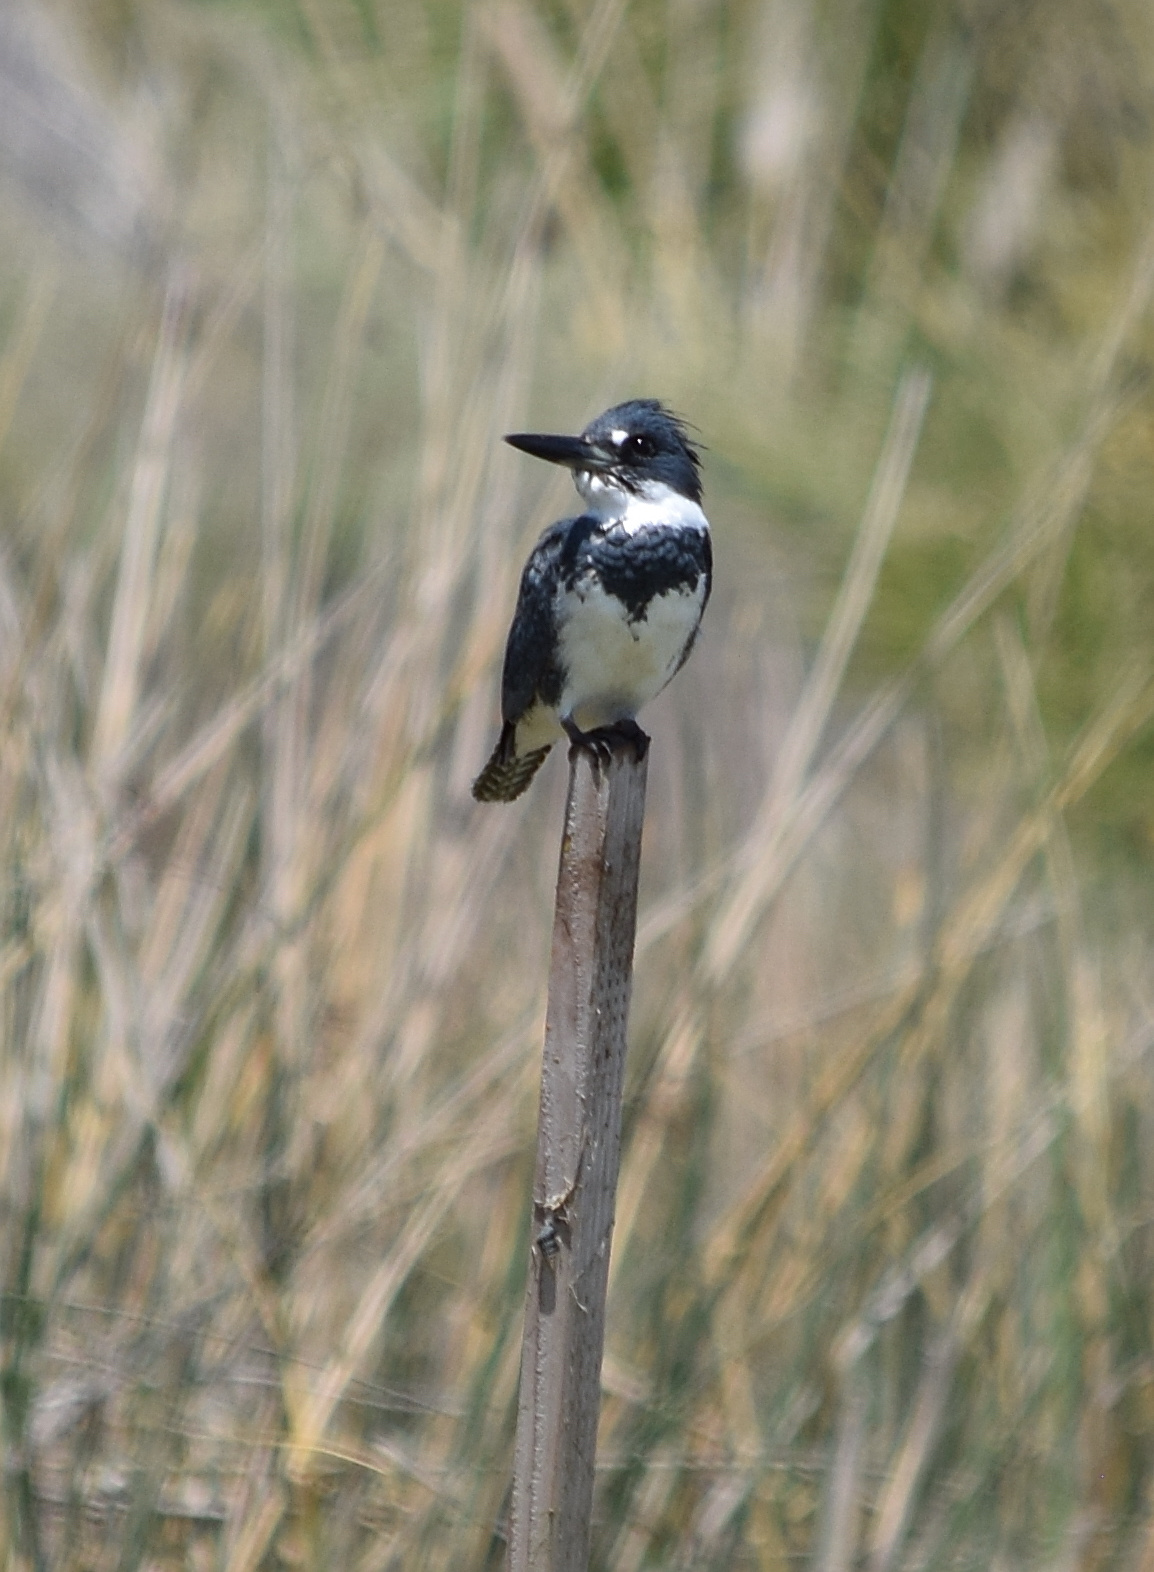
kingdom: Animalia
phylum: Chordata
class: Aves
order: Coraciiformes
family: Alcedinidae
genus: Megaceryle
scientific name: Megaceryle alcyon
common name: Belted kingfisher
